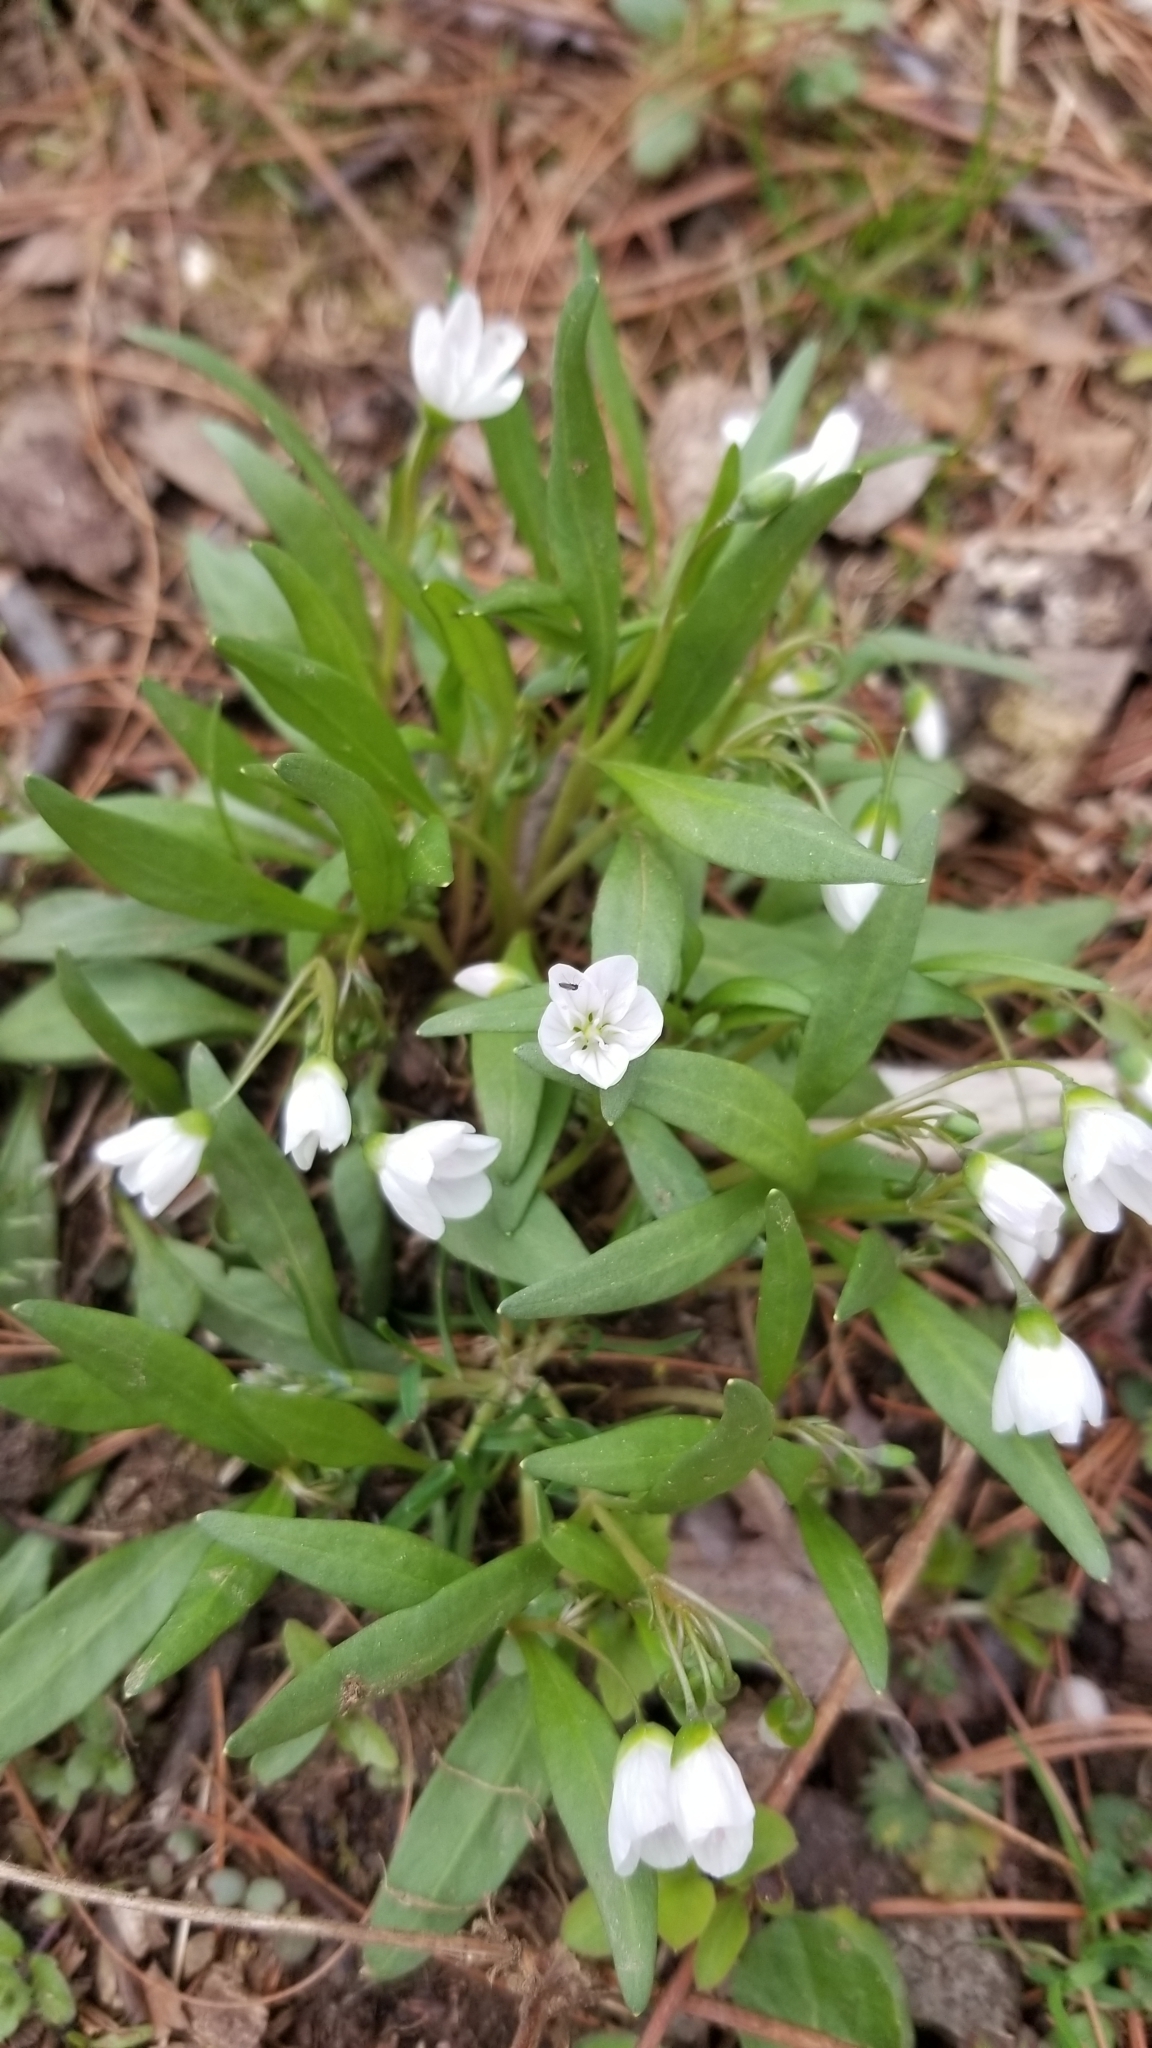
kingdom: Plantae
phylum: Tracheophyta
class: Magnoliopsida
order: Caryophyllales
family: Montiaceae
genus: Claytonia
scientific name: Claytonia virginica
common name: Virginia springbeauty
